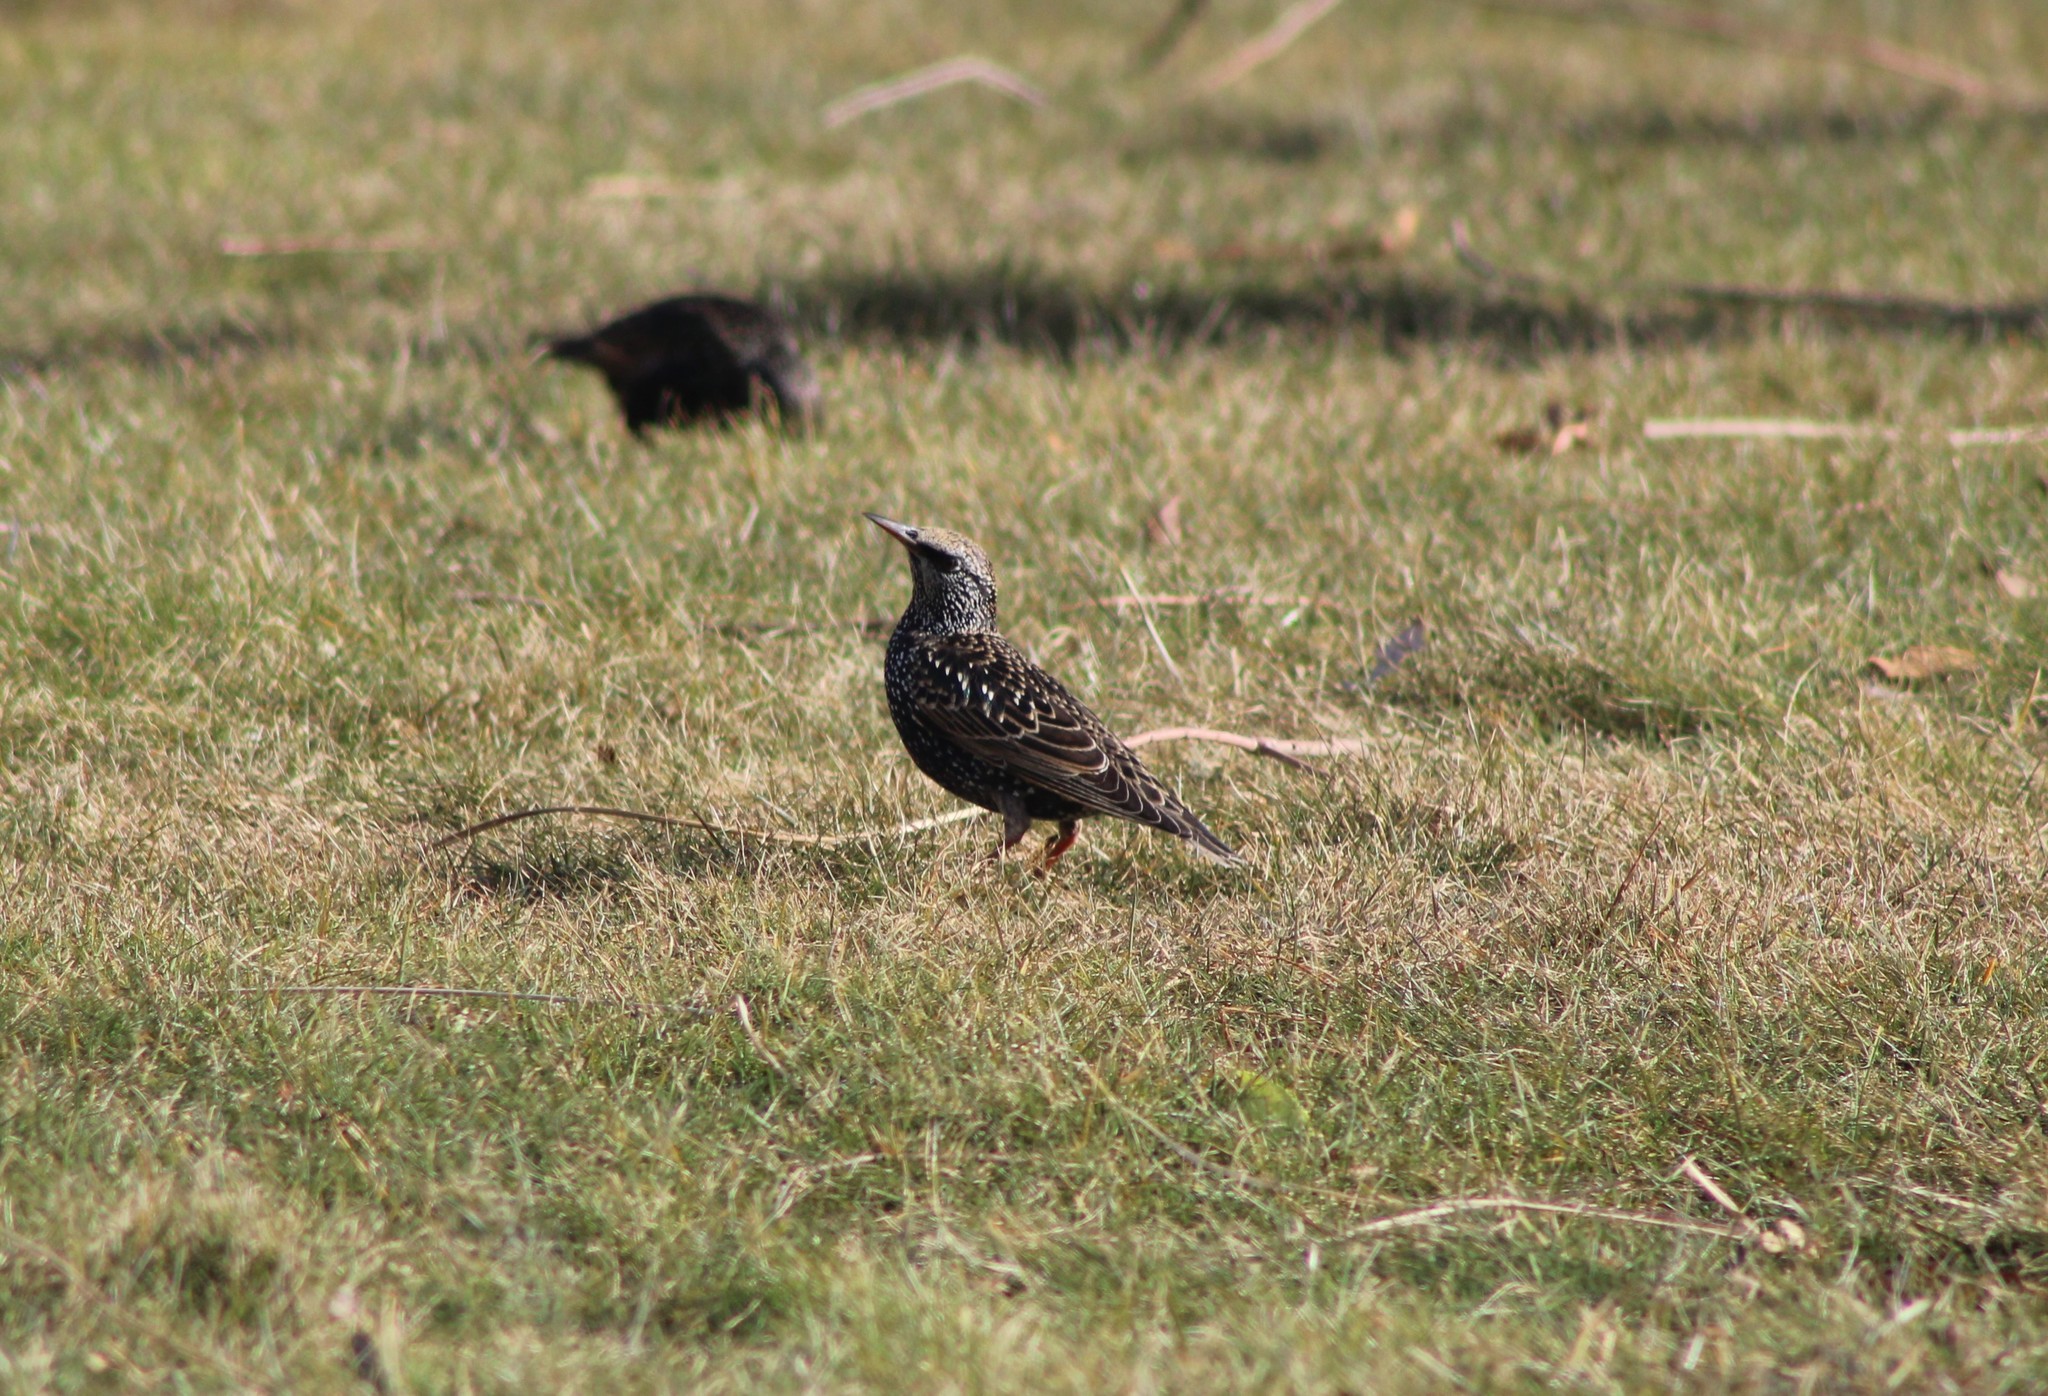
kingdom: Animalia
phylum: Chordata
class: Aves
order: Passeriformes
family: Sturnidae
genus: Sturnus
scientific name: Sturnus vulgaris
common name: Common starling
